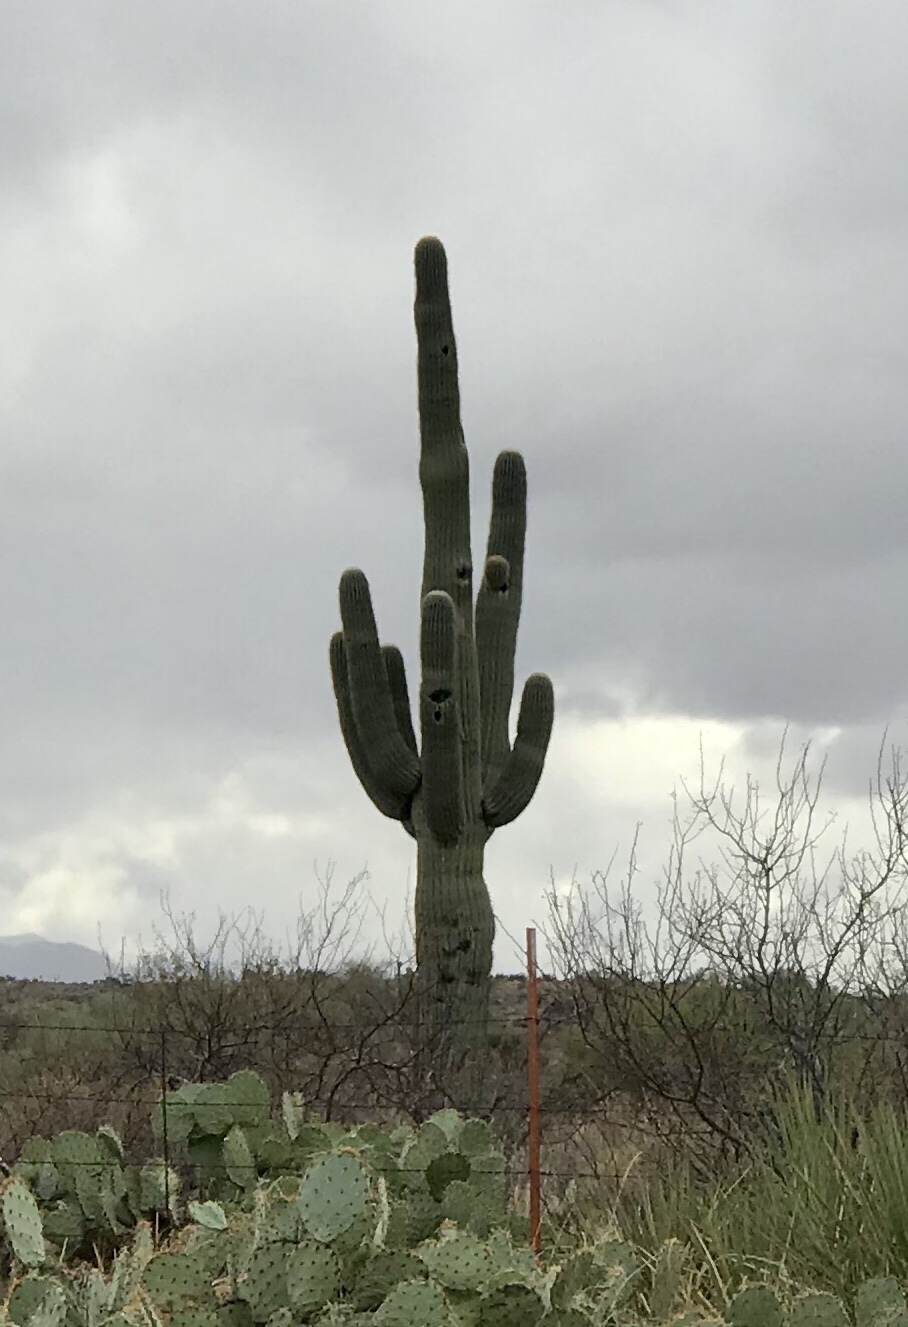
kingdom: Plantae
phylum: Tracheophyta
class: Magnoliopsida
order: Caryophyllales
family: Cactaceae
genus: Carnegiea
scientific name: Carnegiea gigantea
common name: Saguaro
